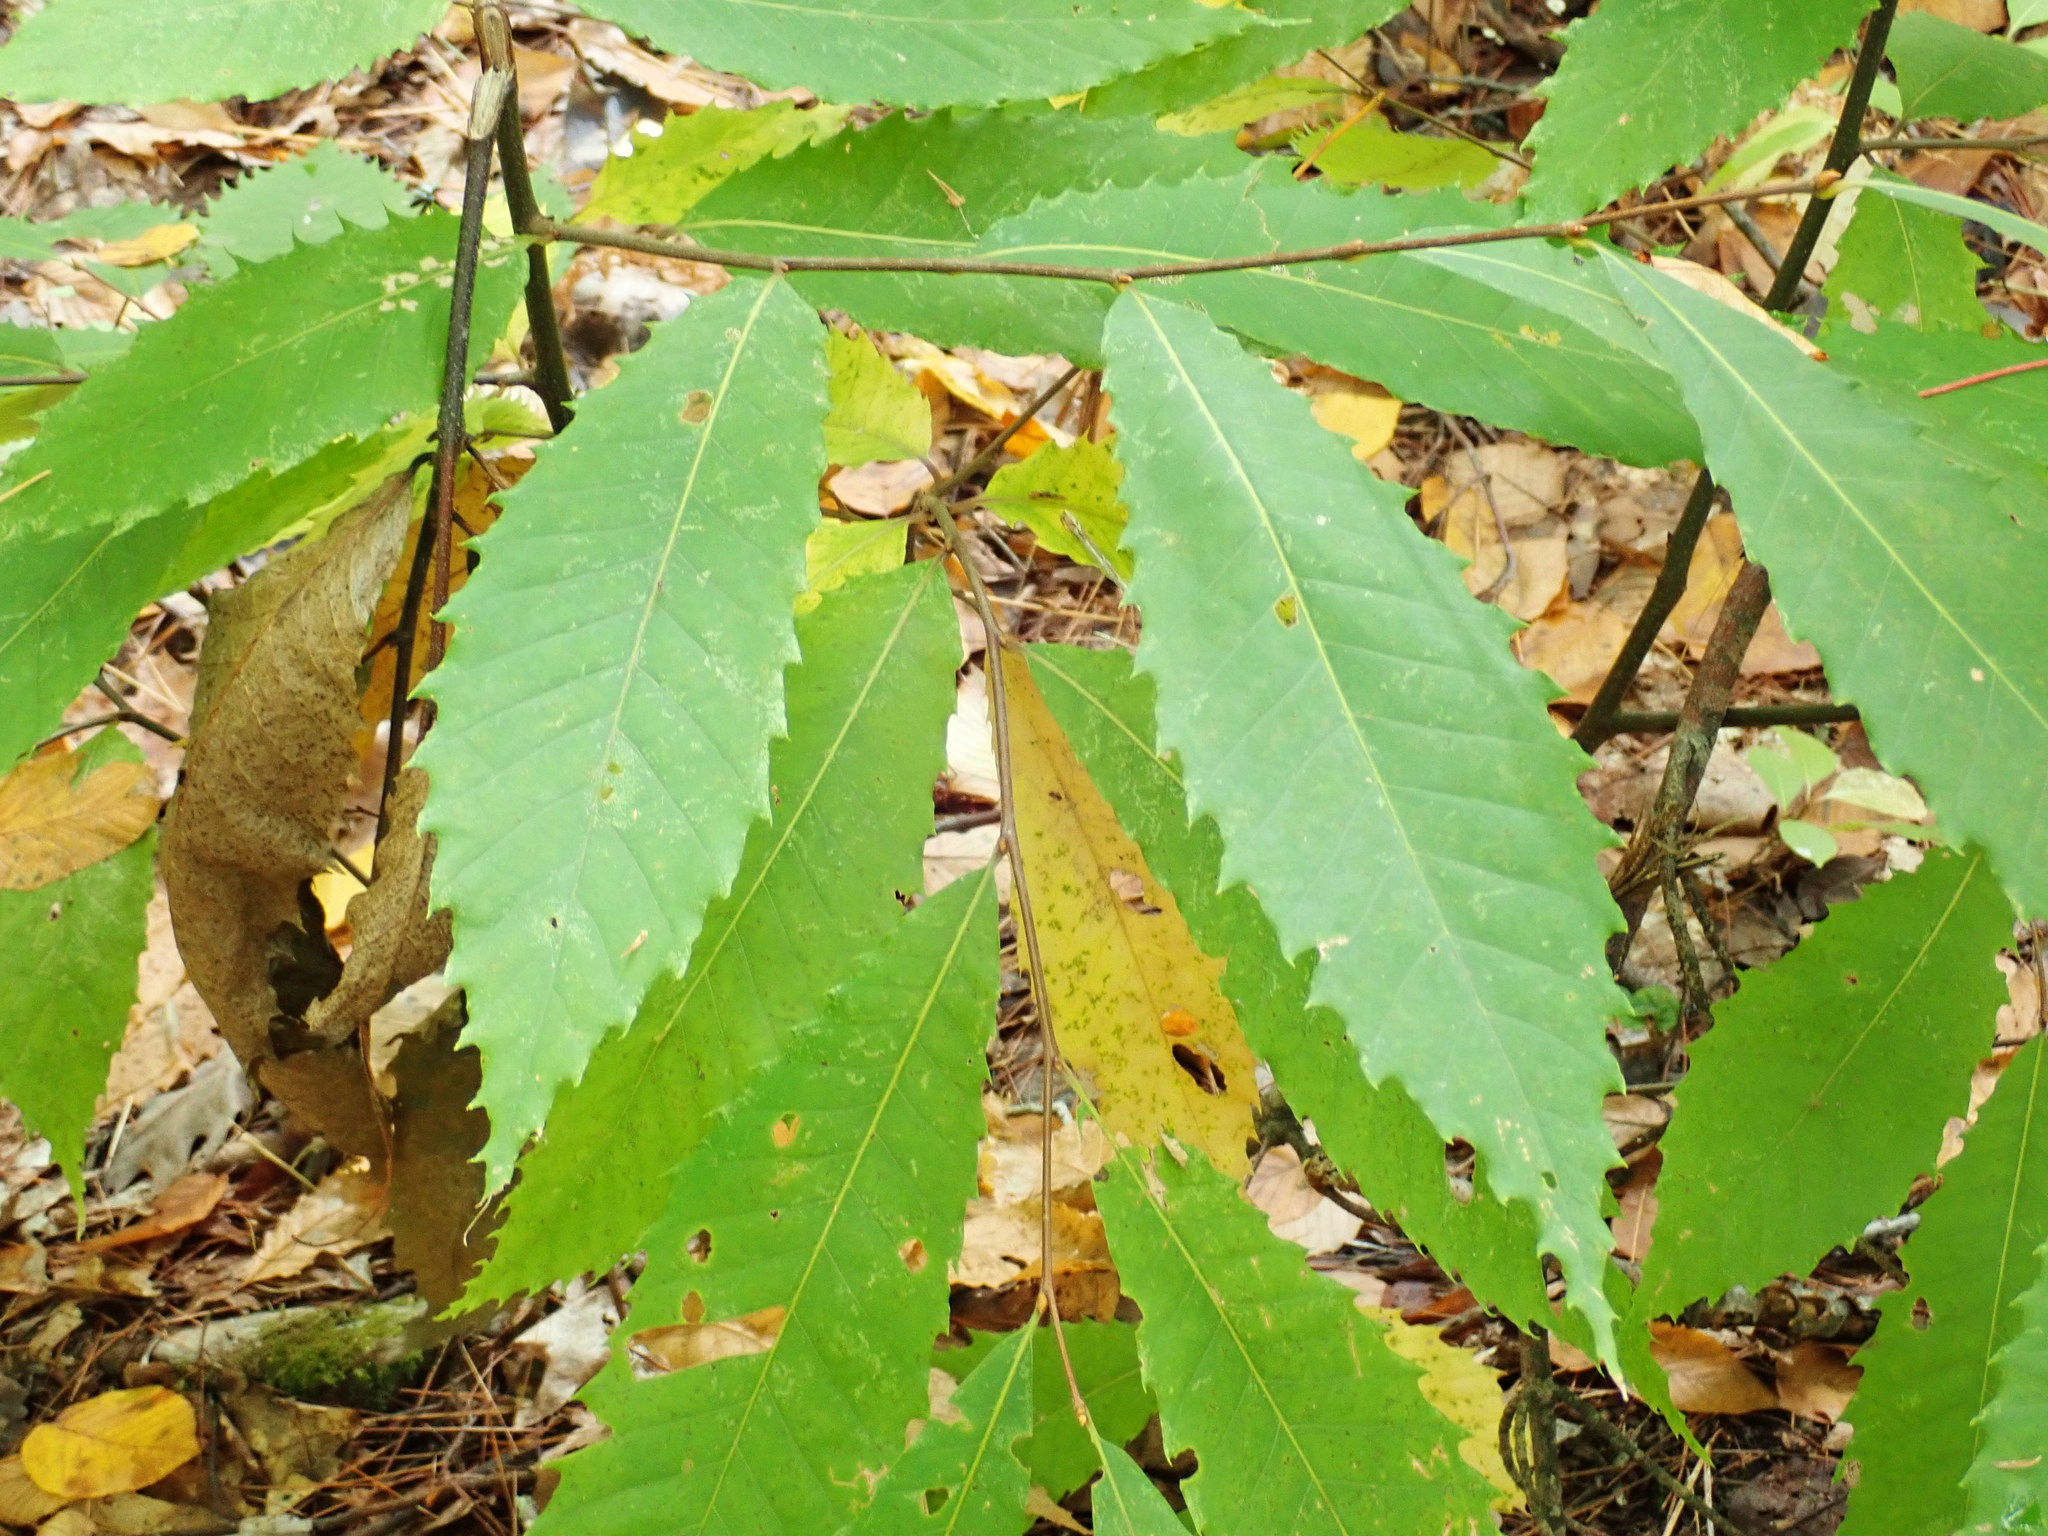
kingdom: Plantae
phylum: Tracheophyta
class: Magnoliopsida
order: Fagales
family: Fagaceae
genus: Castanea
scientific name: Castanea dentata
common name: American chestnut
